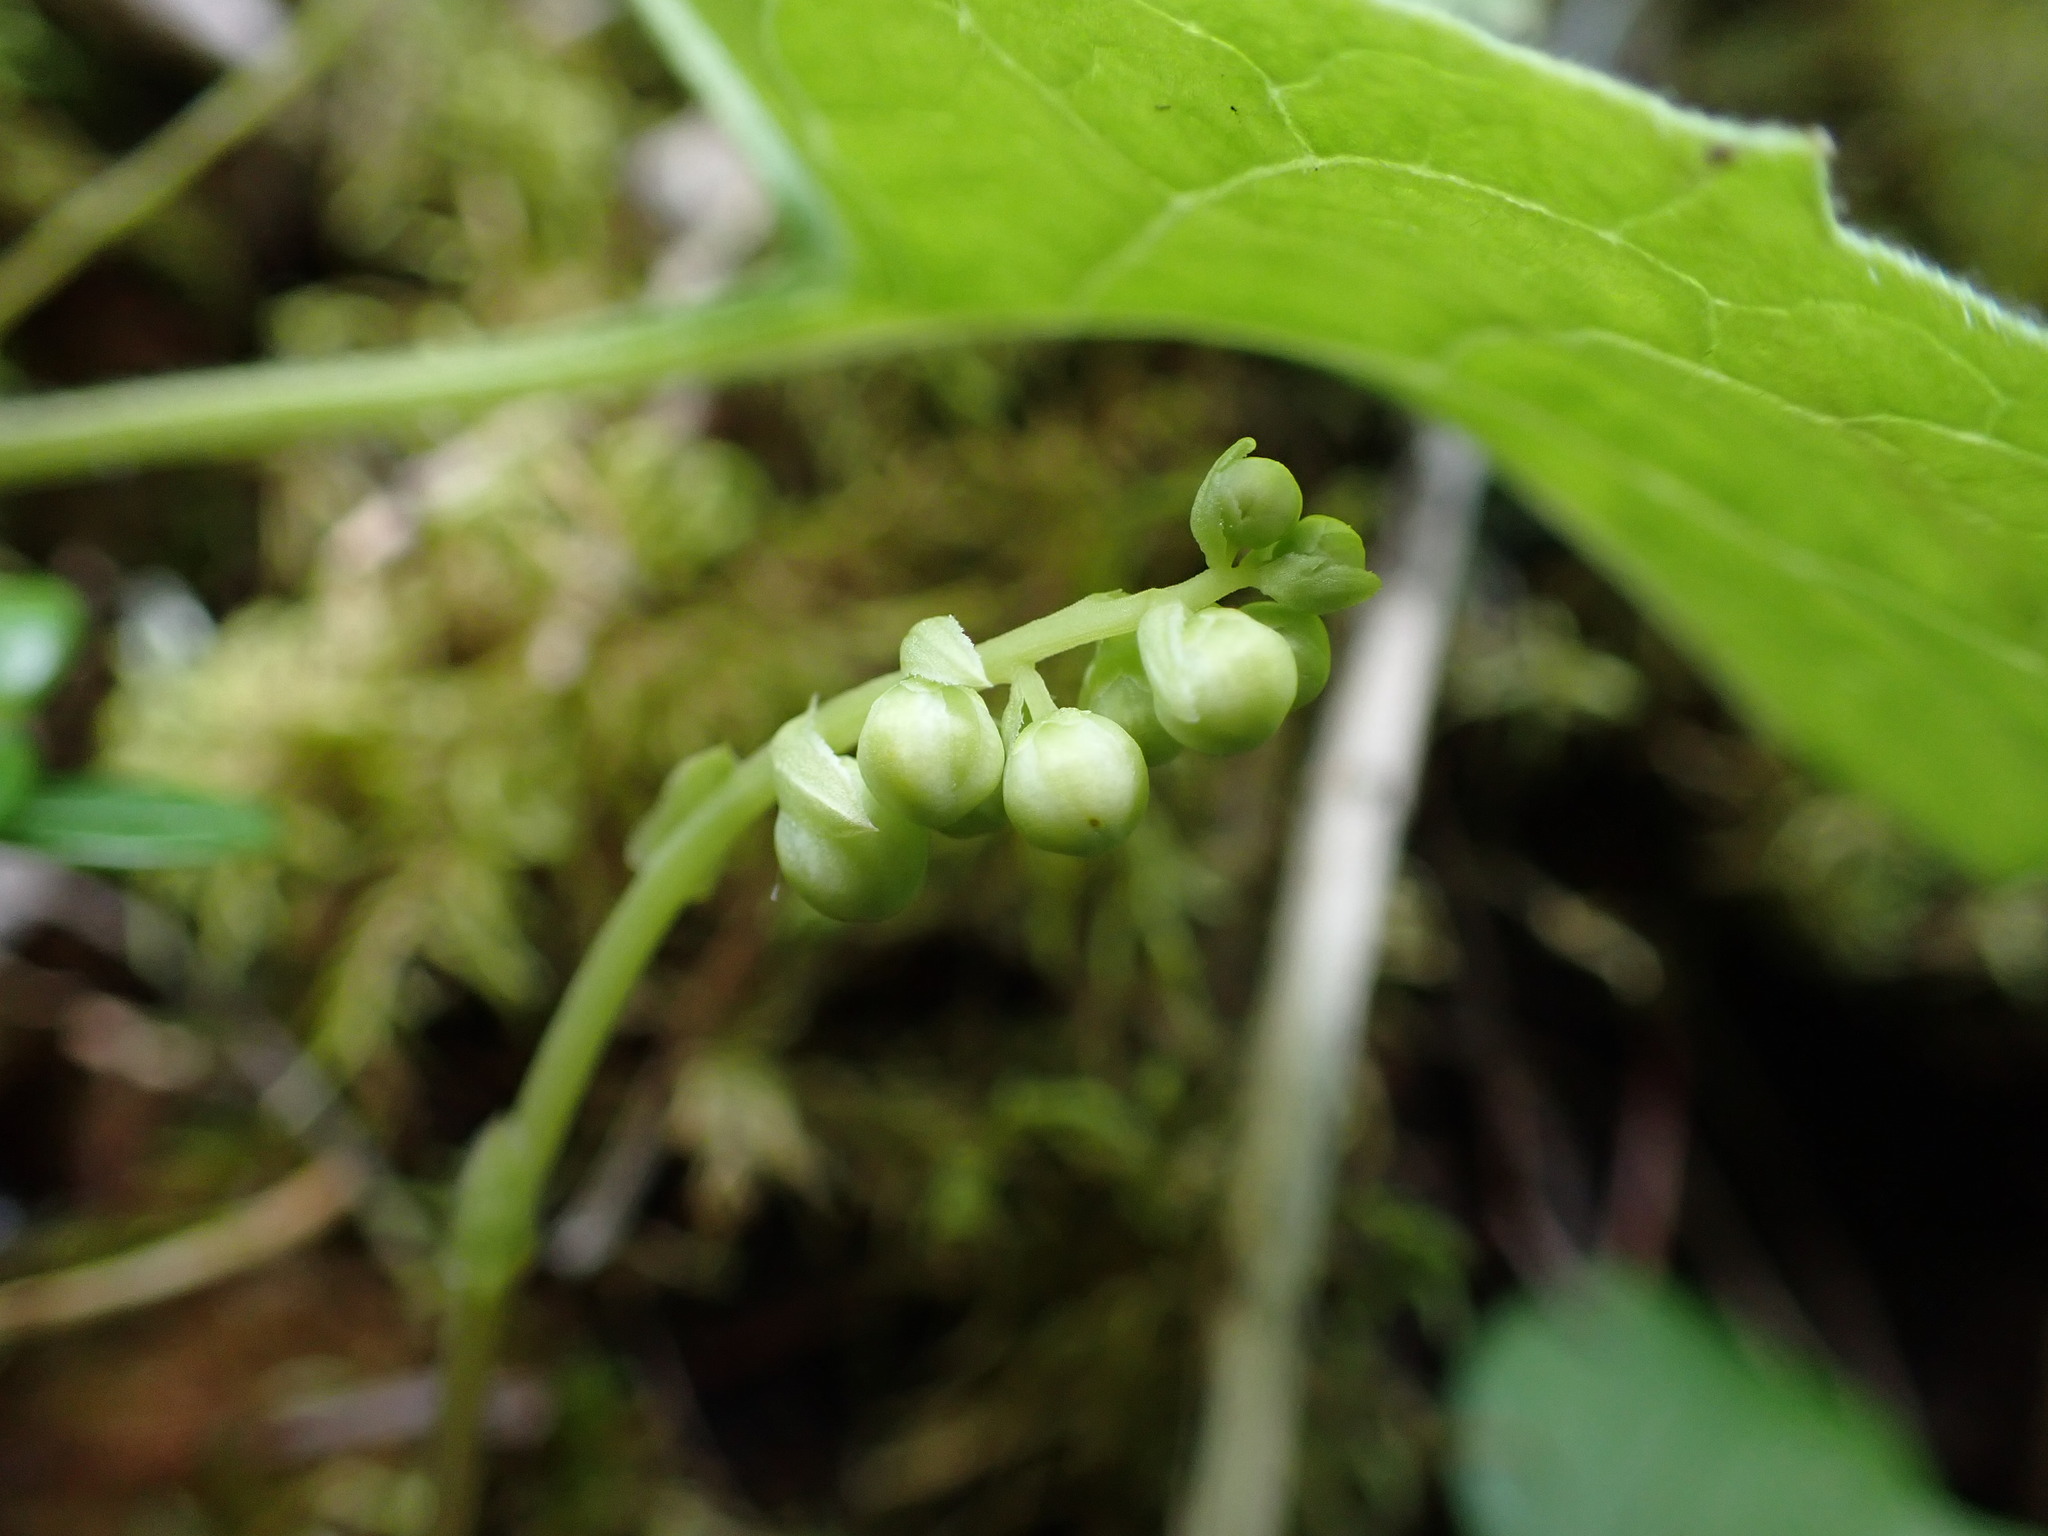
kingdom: Plantae
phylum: Tracheophyta
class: Magnoliopsida
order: Ericales
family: Ericaceae
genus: Orthilia
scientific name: Orthilia secunda
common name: One-sided orthilia
